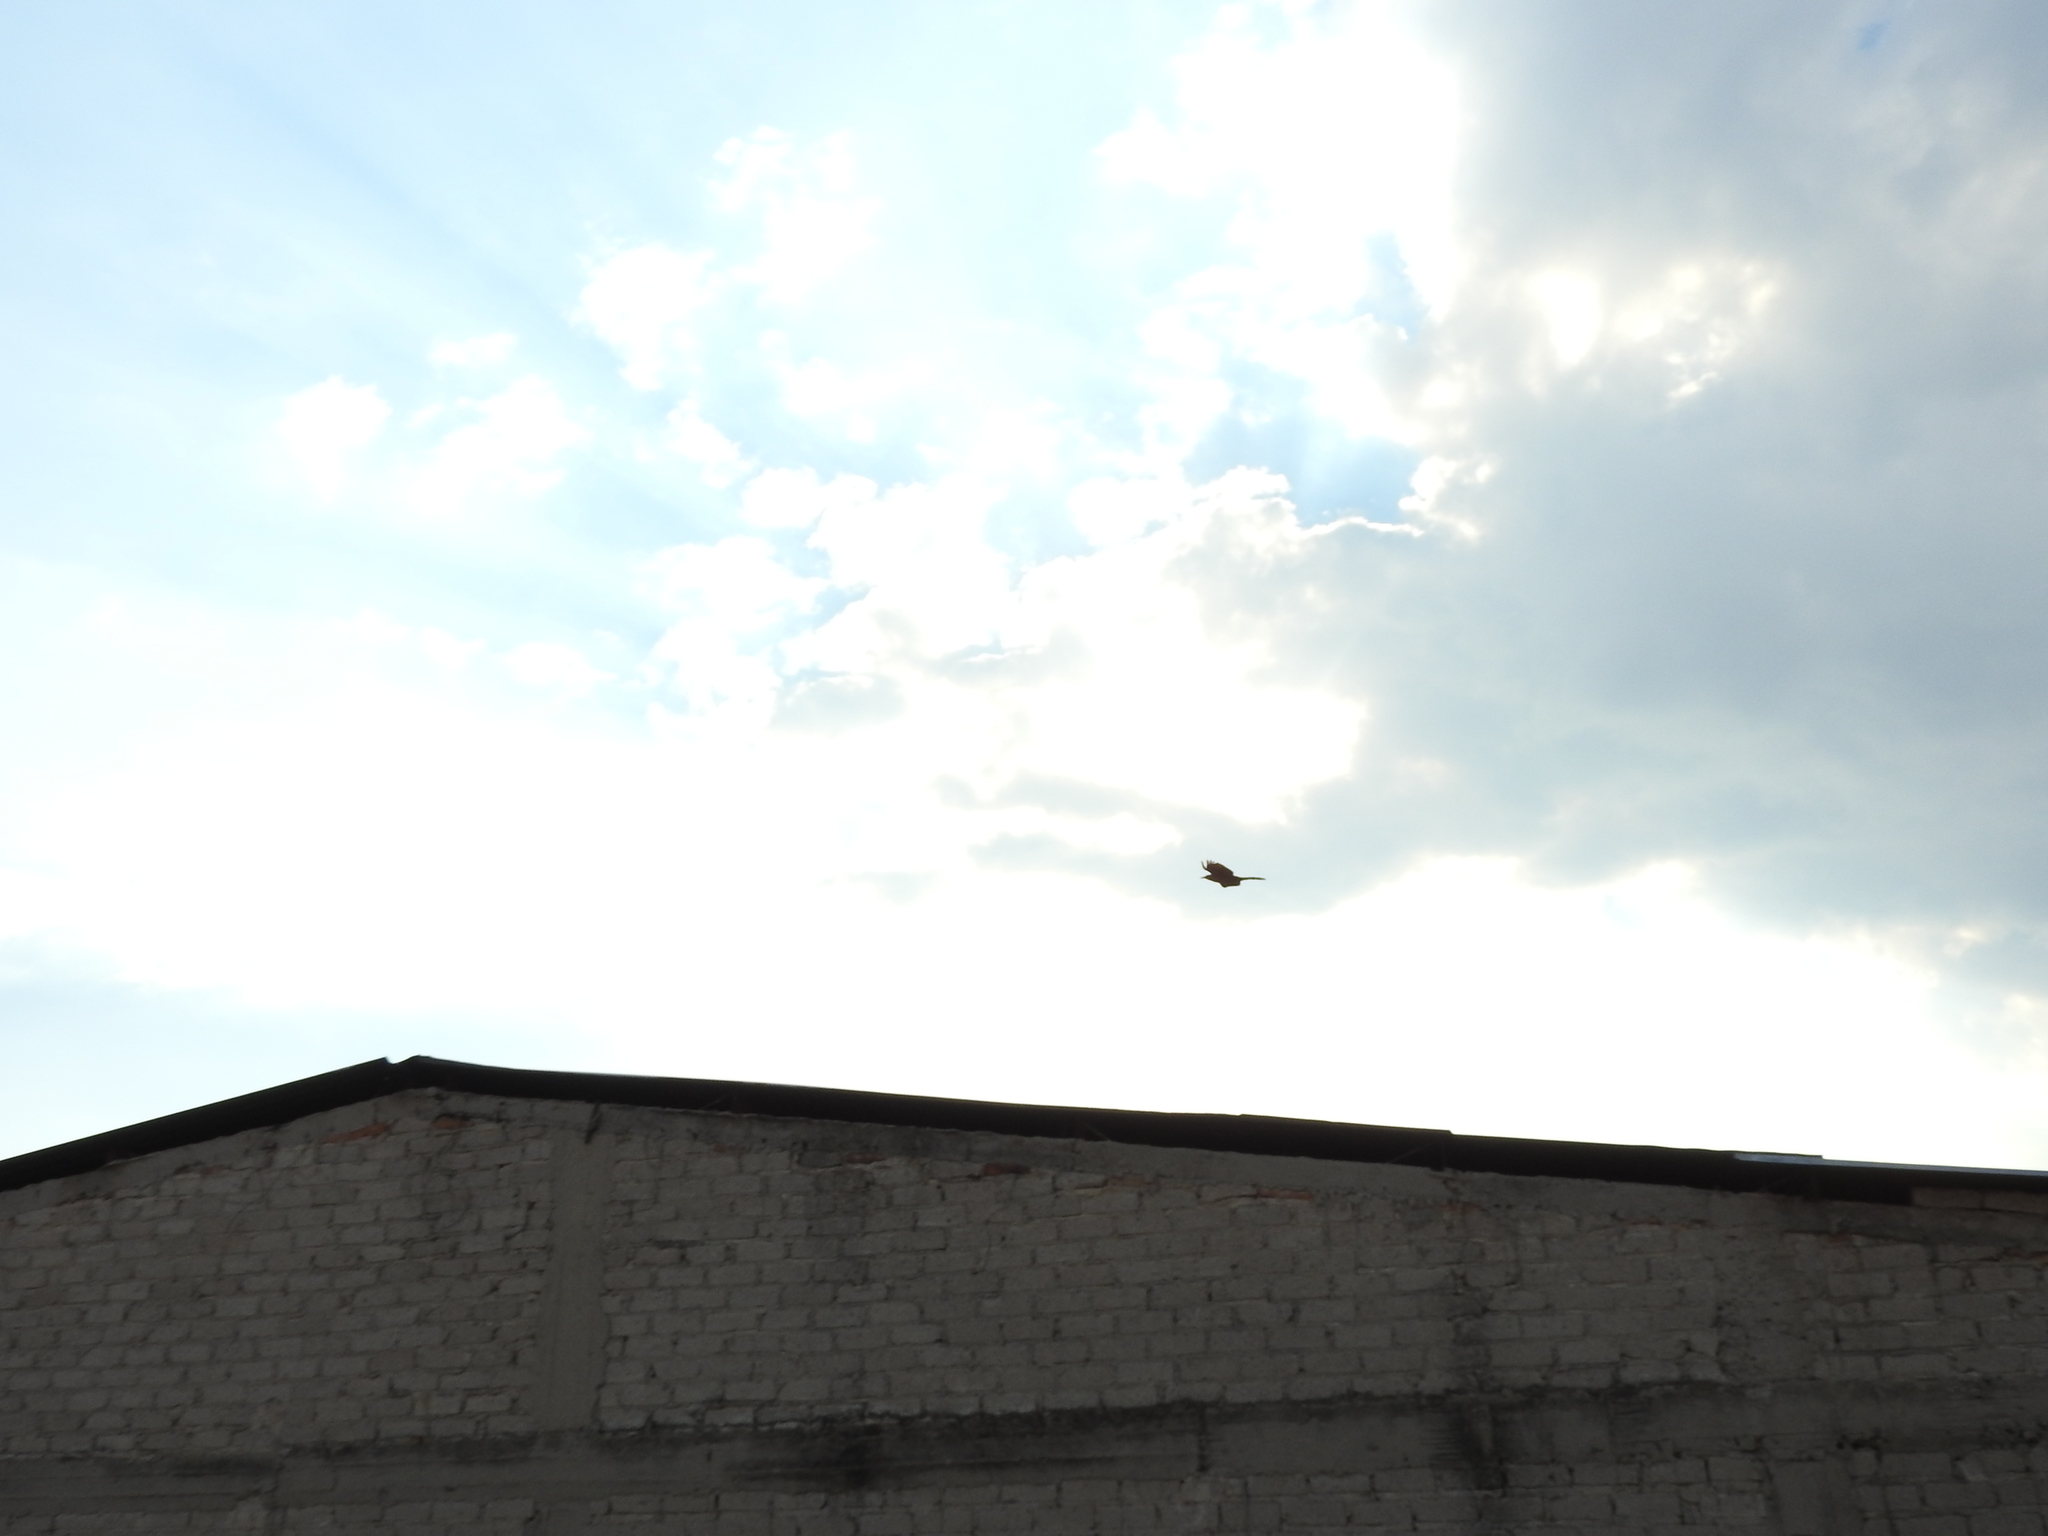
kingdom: Animalia
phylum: Chordata
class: Aves
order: Passeriformes
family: Icteridae
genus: Quiscalus
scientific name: Quiscalus mexicanus
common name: Great-tailed grackle
